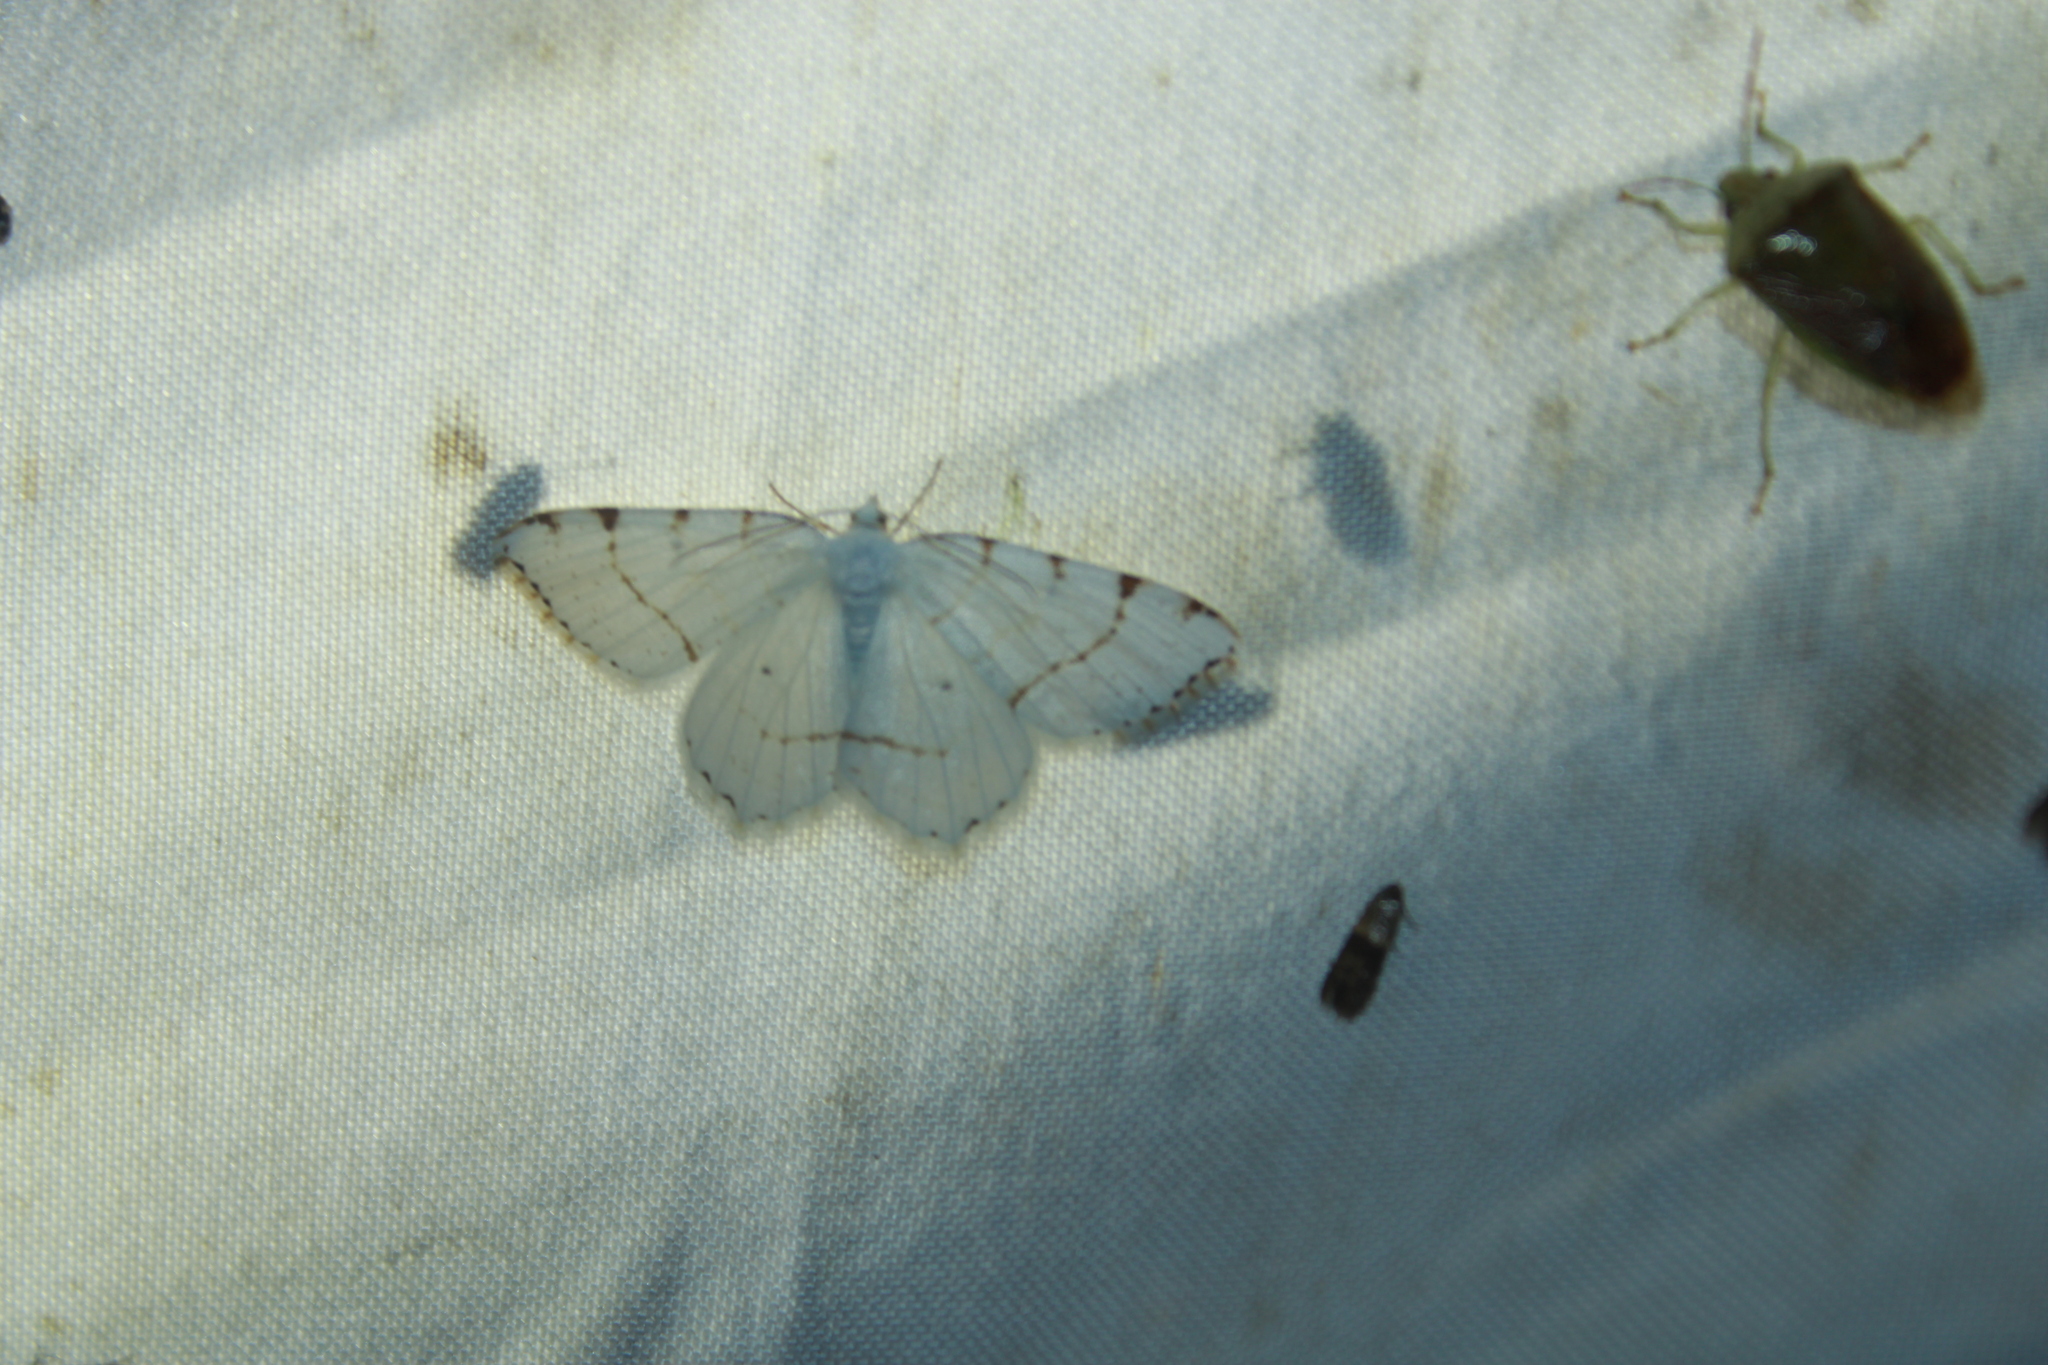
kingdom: Animalia
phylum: Arthropoda
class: Insecta
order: Lepidoptera
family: Geometridae
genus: Macaria
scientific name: Macaria pustularia
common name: Lesser maple spanworm moth
